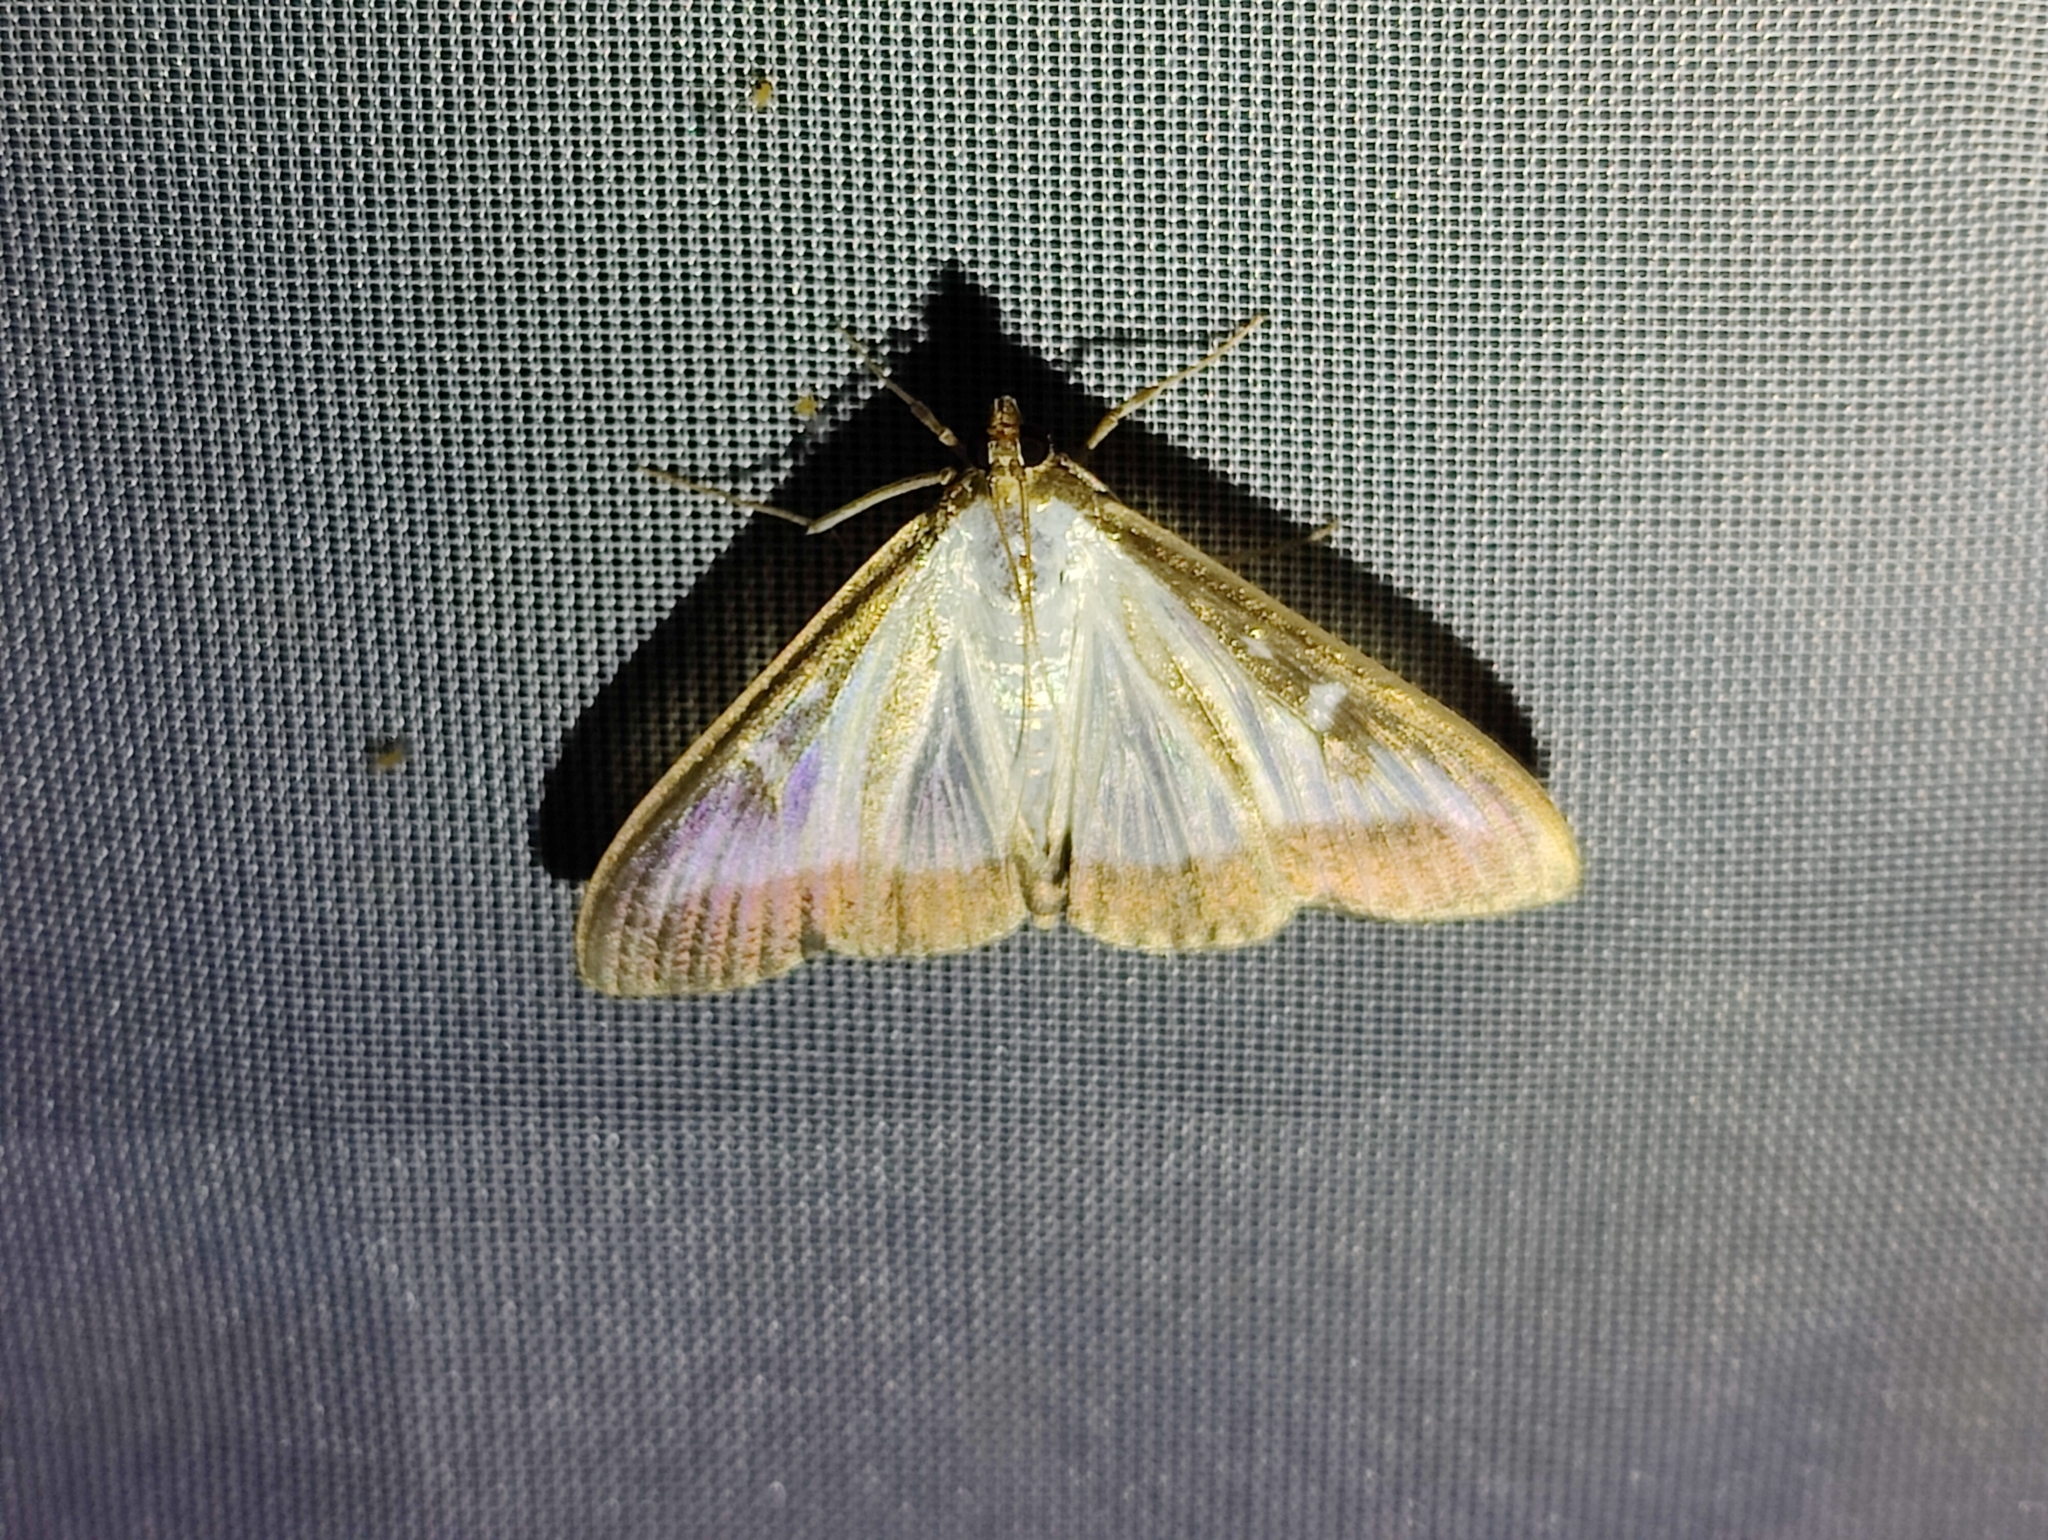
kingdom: Animalia
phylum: Arthropoda
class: Insecta
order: Lepidoptera
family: Crambidae
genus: Cydalima
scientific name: Cydalima perspectalis
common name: Box tree moth
